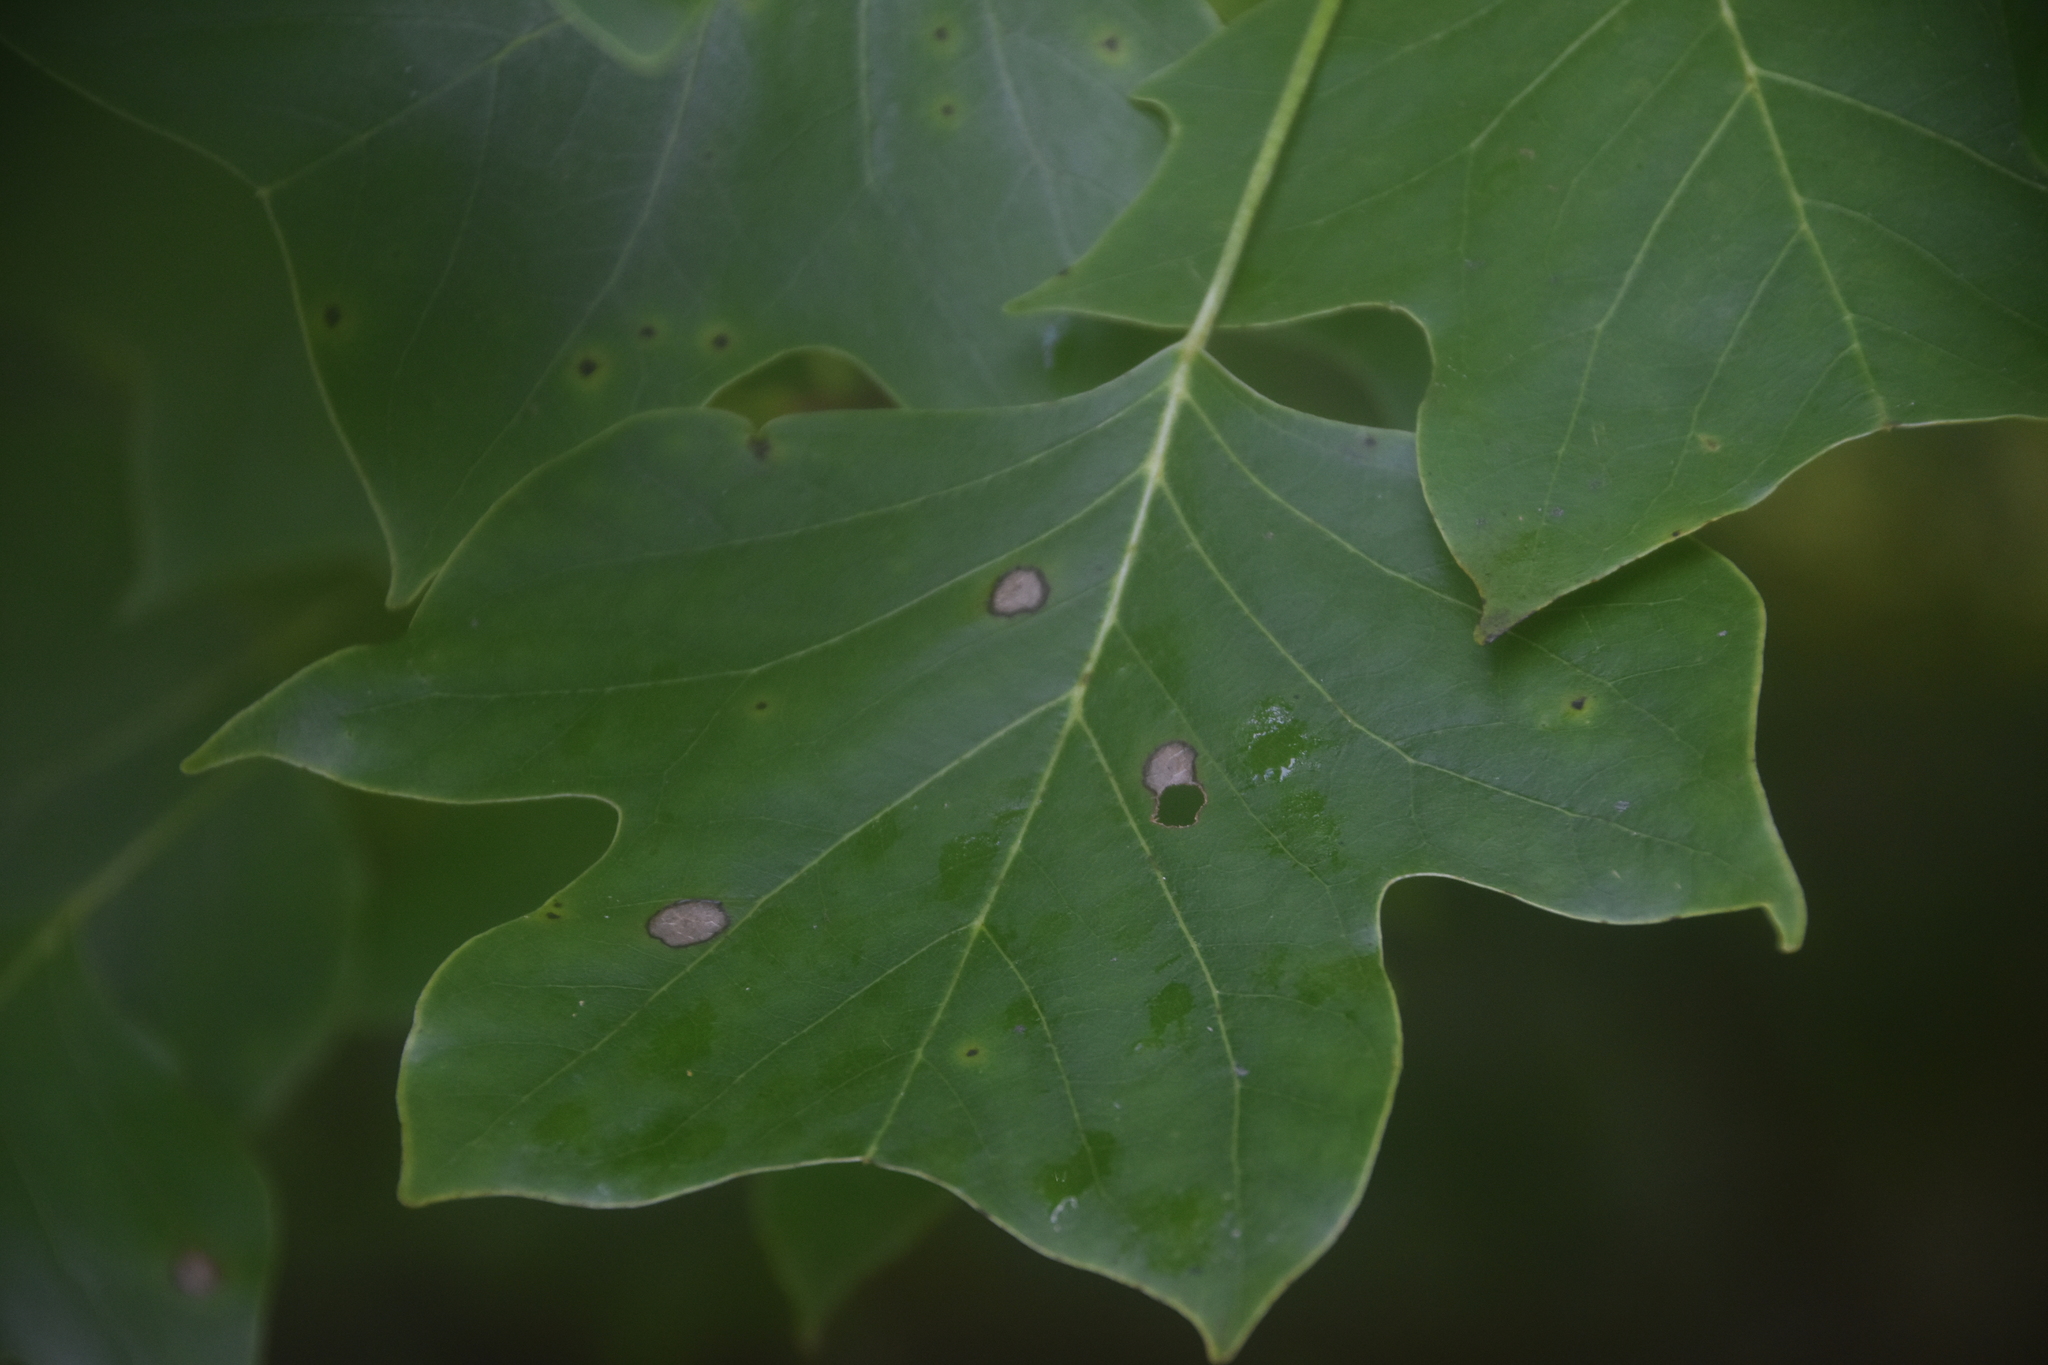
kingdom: Plantae
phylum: Tracheophyta
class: Magnoliopsida
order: Magnoliales
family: Magnoliaceae
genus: Liriodendron
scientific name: Liriodendron tulipifera
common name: Tulip tree
